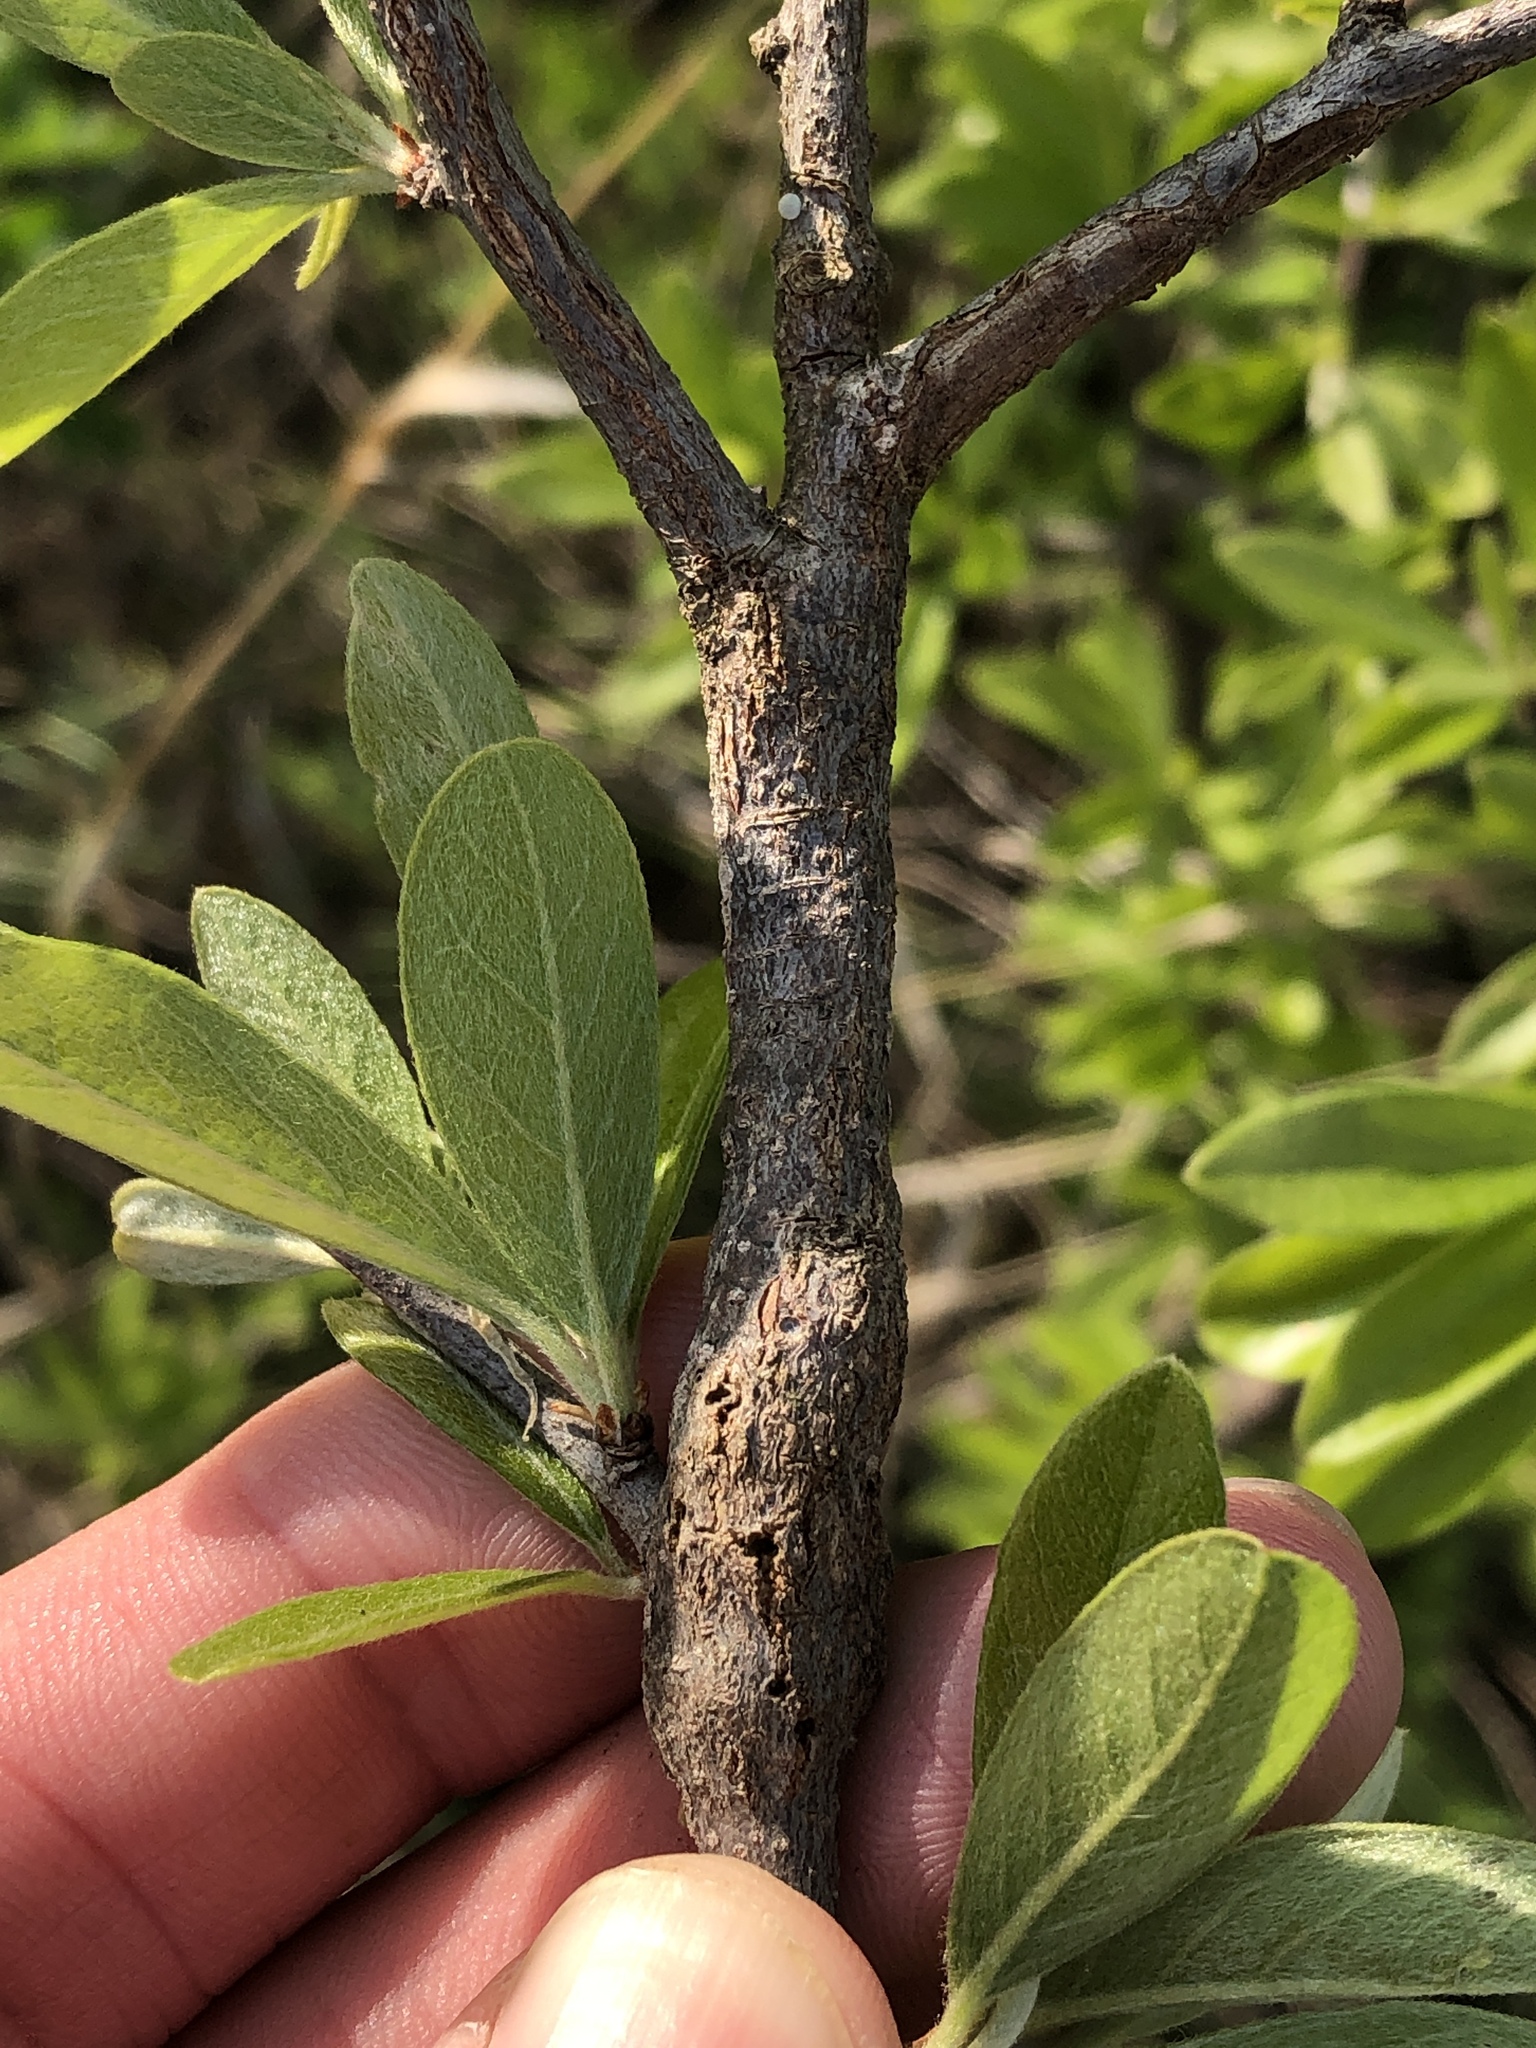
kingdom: Animalia
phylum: Arthropoda
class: Insecta
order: Diptera
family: Cecidomyiidae
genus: Bruggmanniella
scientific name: Bruggmanniella bumeliae
